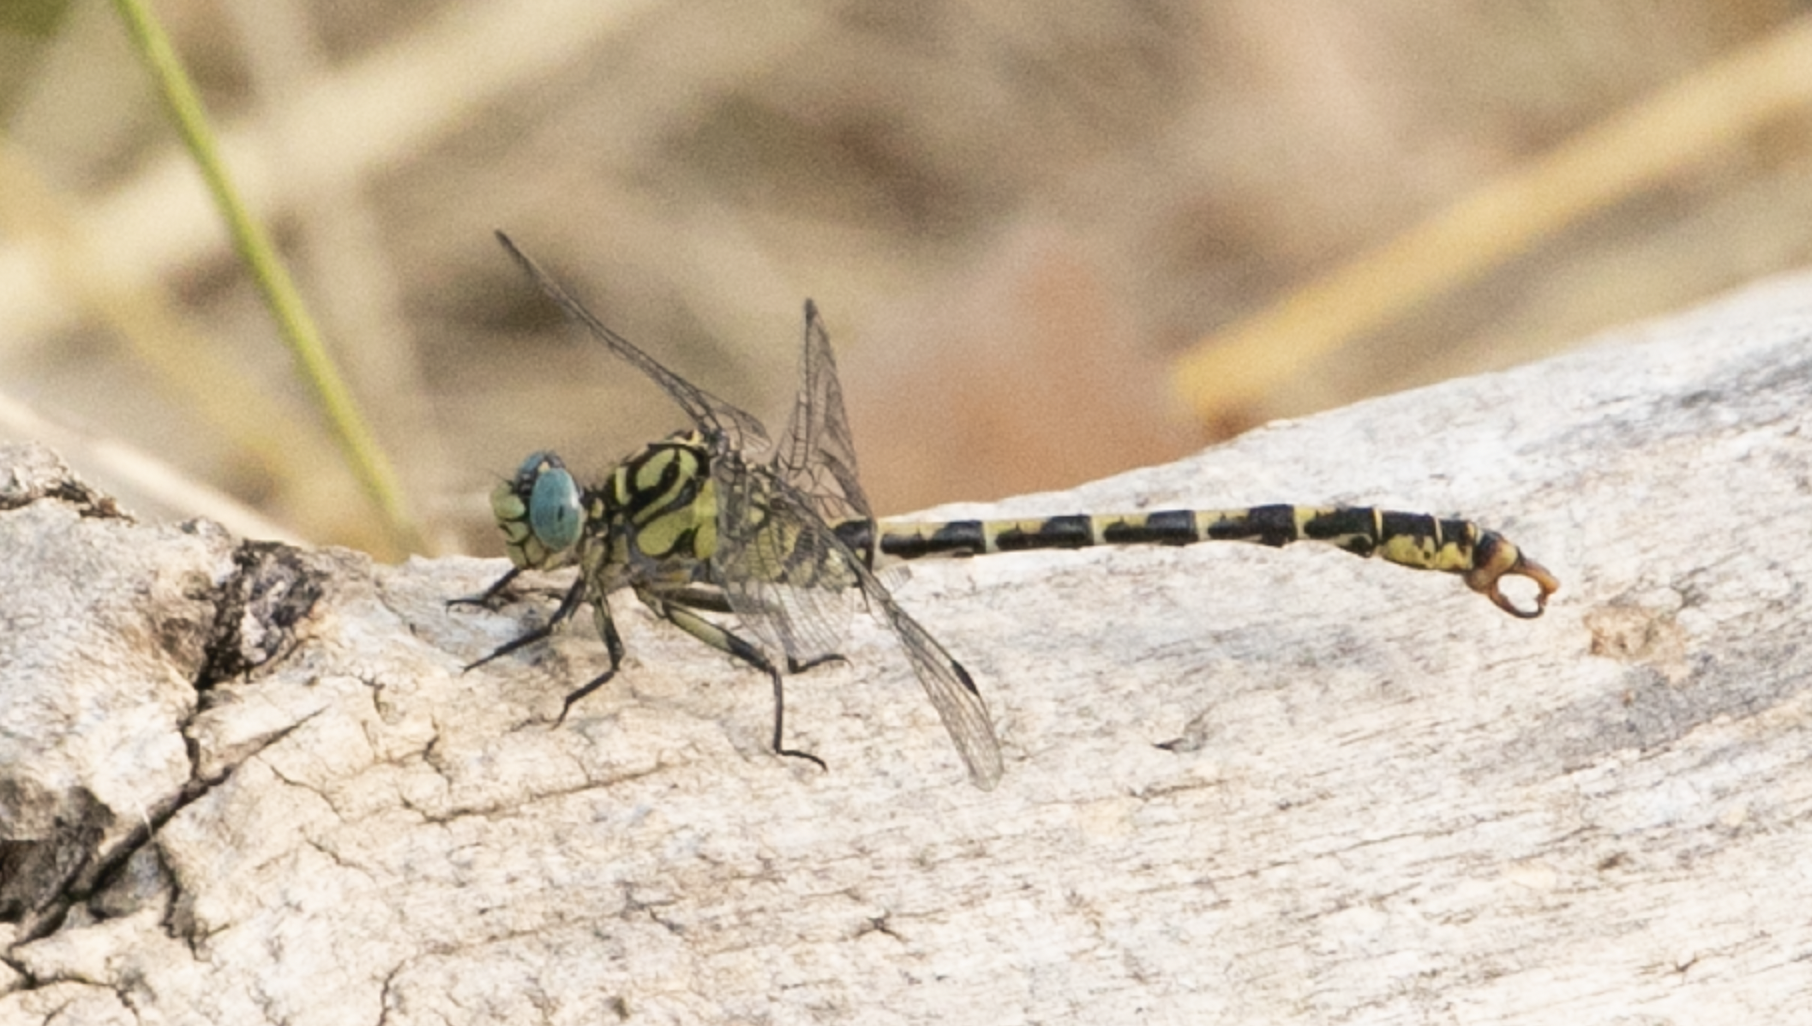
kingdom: Animalia
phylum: Arthropoda
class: Insecta
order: Odonata
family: Gomphidae
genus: Onychogomphus
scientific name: Onychogomphus forcipatus
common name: Small pincertail
